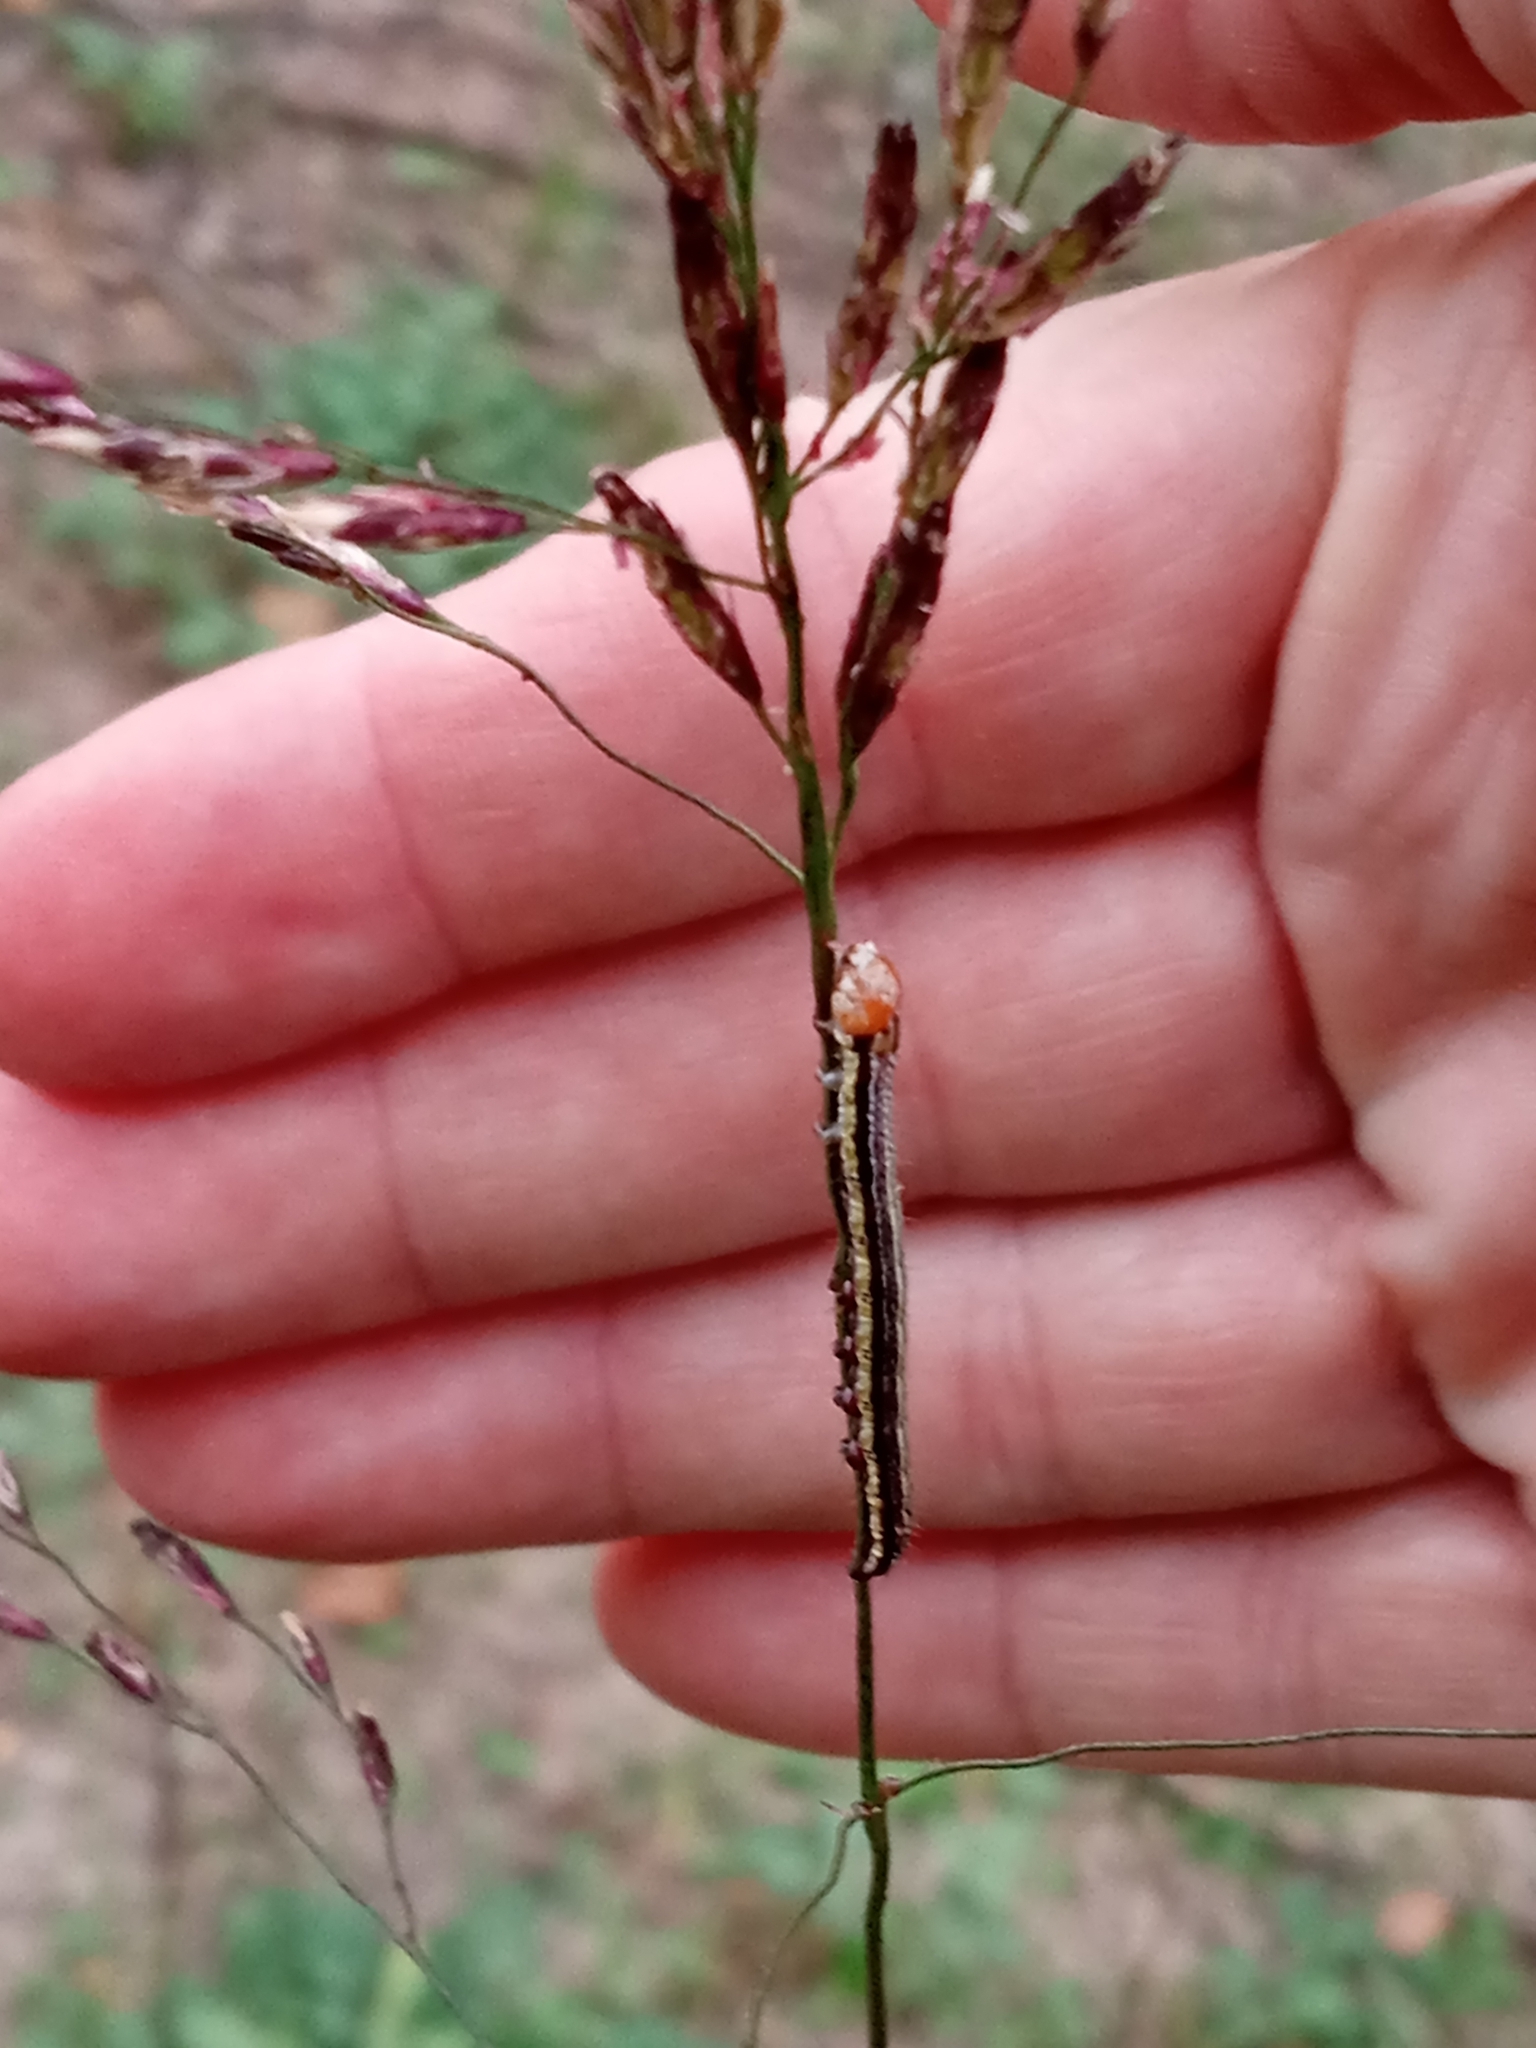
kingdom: Animalia
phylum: Arthropoda
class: Insecta
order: Lepidoptera
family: Noctuidae
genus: Heliocheilus
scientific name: Heliocheilus lupata
